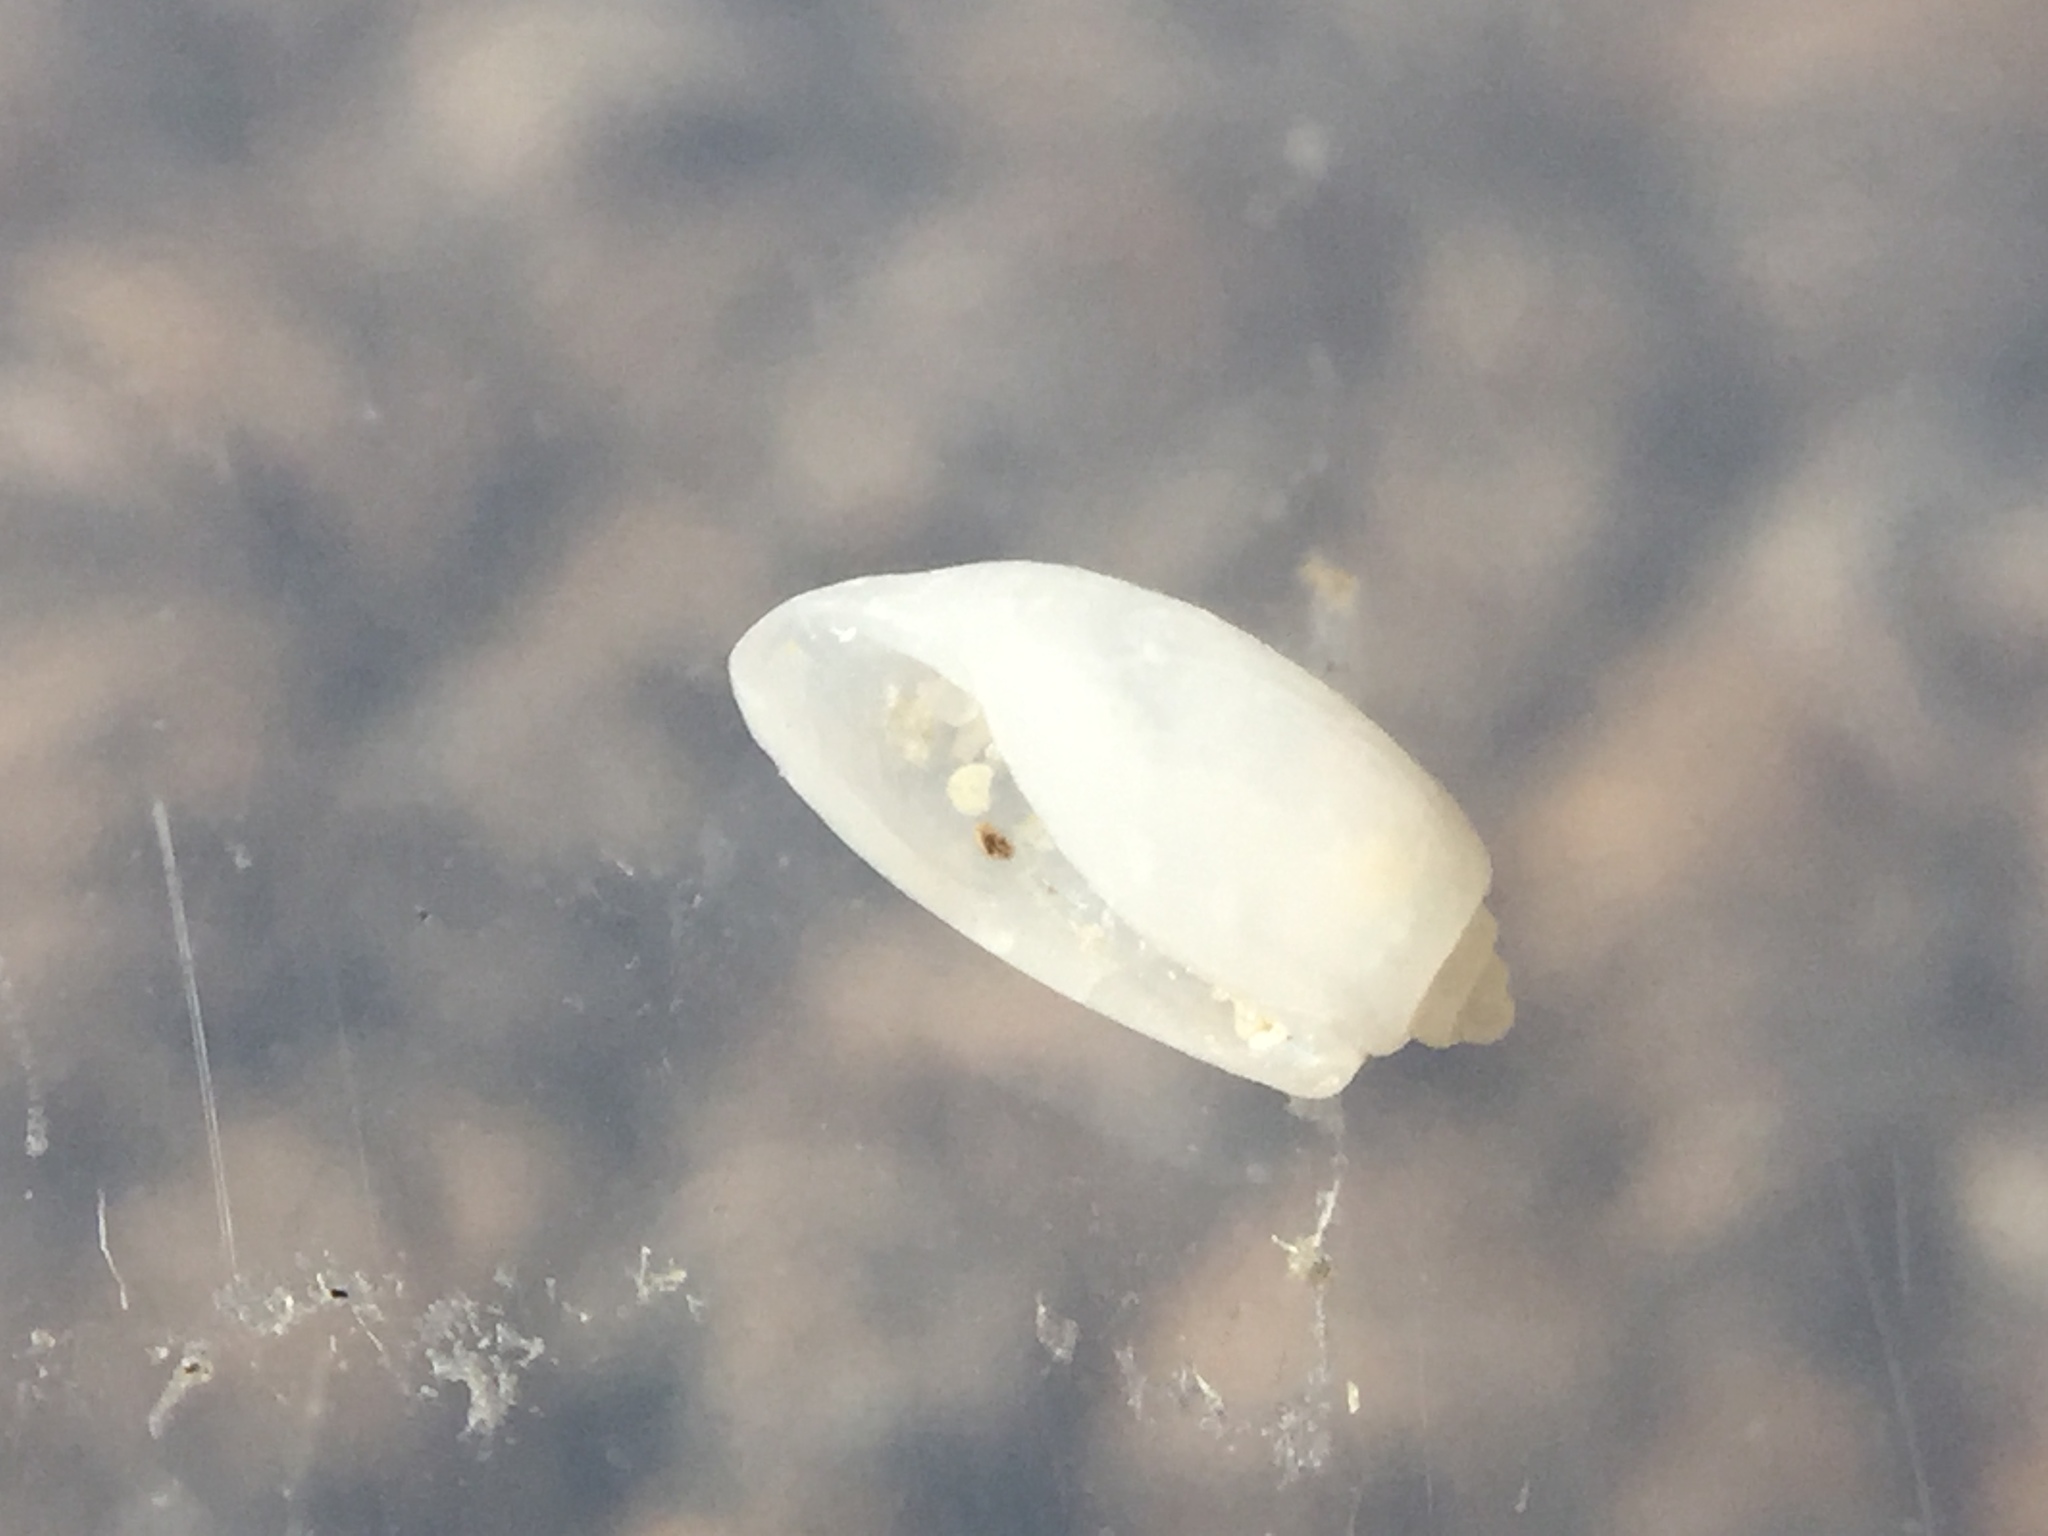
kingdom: Animalia
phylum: Mollusca
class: Gastropoda
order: Cephalaspidea
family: Retusidae
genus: Retusa
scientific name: Retusa oruaensis
